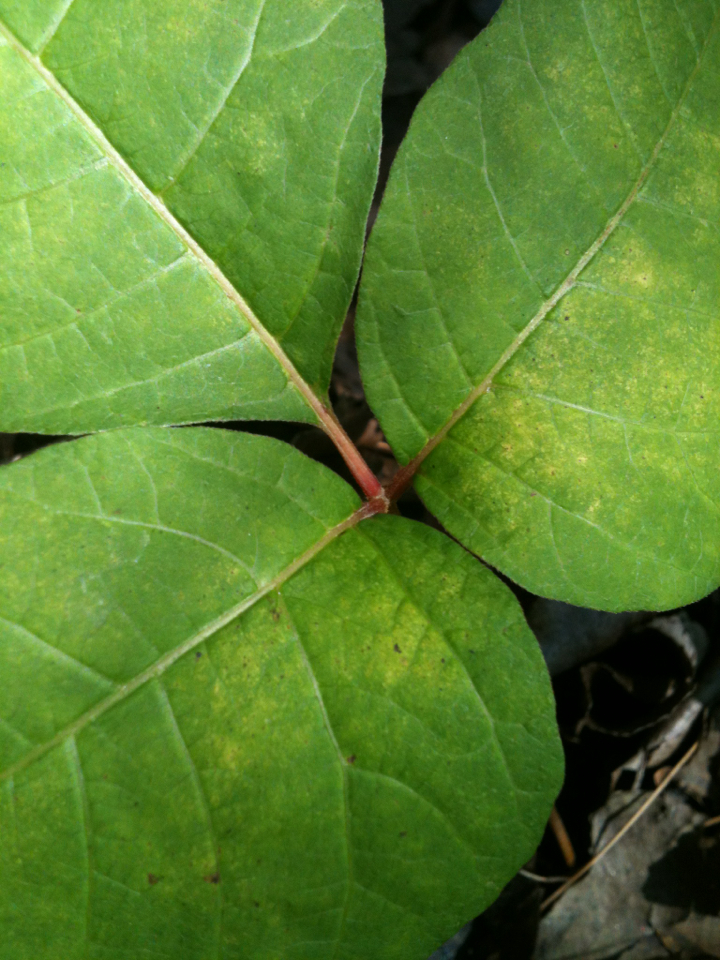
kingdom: Plantae
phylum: Tracheophyta
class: Magnoliopsida
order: Sapindales
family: Anacardiaceae
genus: Toxicodendron
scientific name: Toxicodendron radicans
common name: Poison ivy
